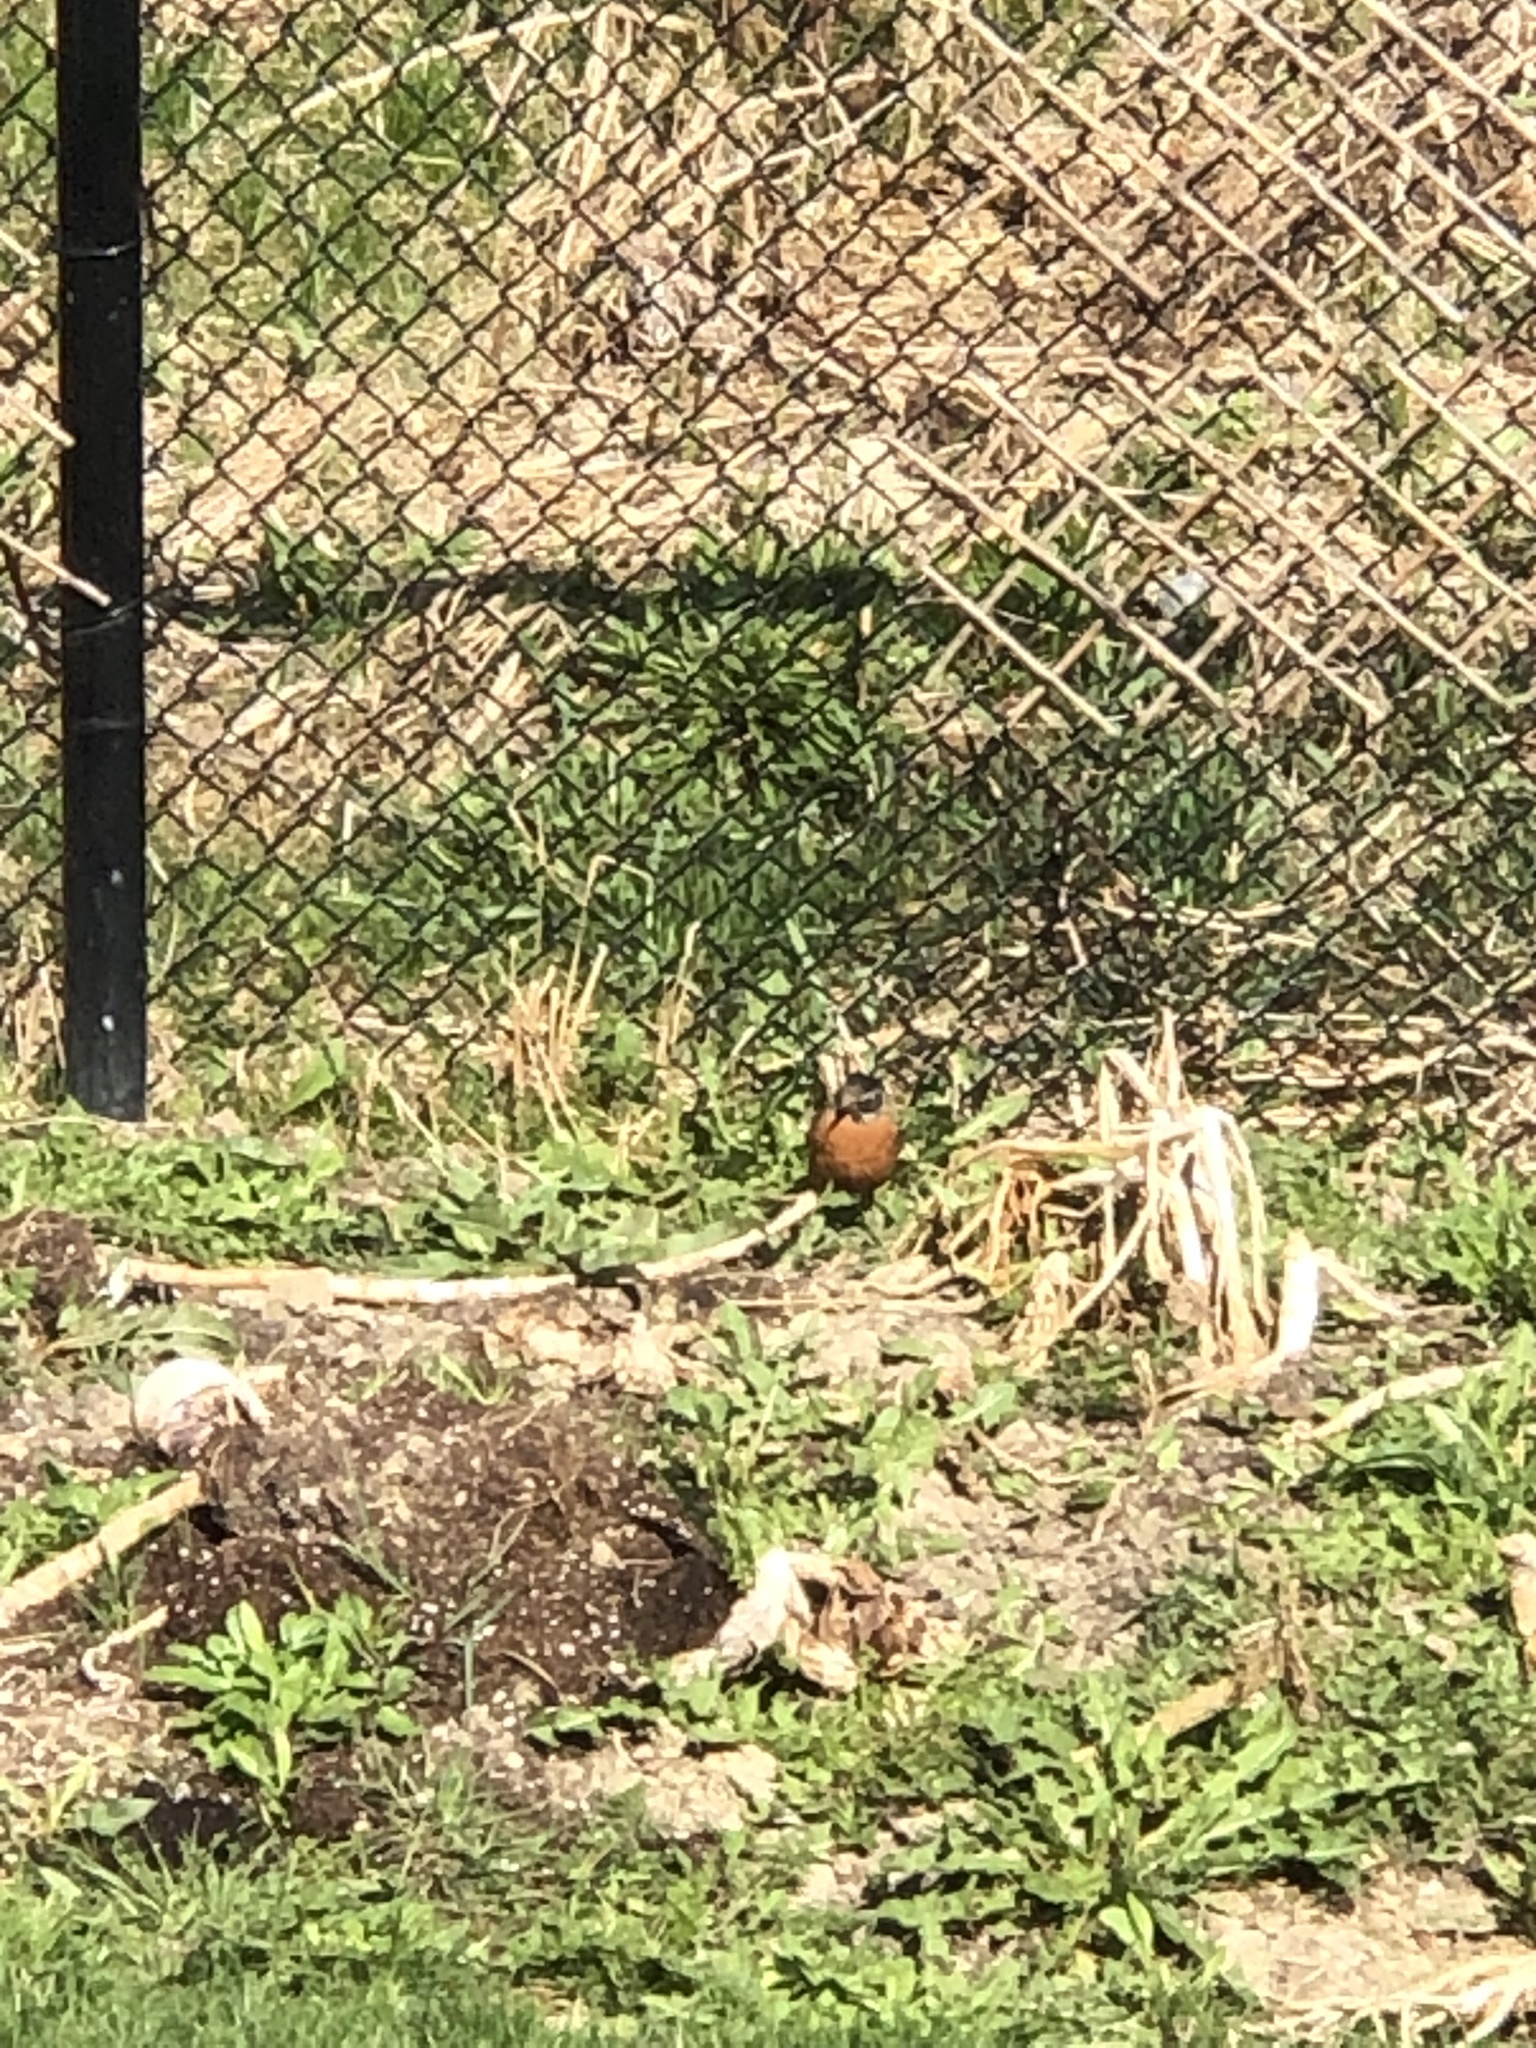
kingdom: Animalia
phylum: Chordata
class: Aves
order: Passeriformes
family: Turdidae
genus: Turdus
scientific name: Turdus migratorius
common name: American robin
